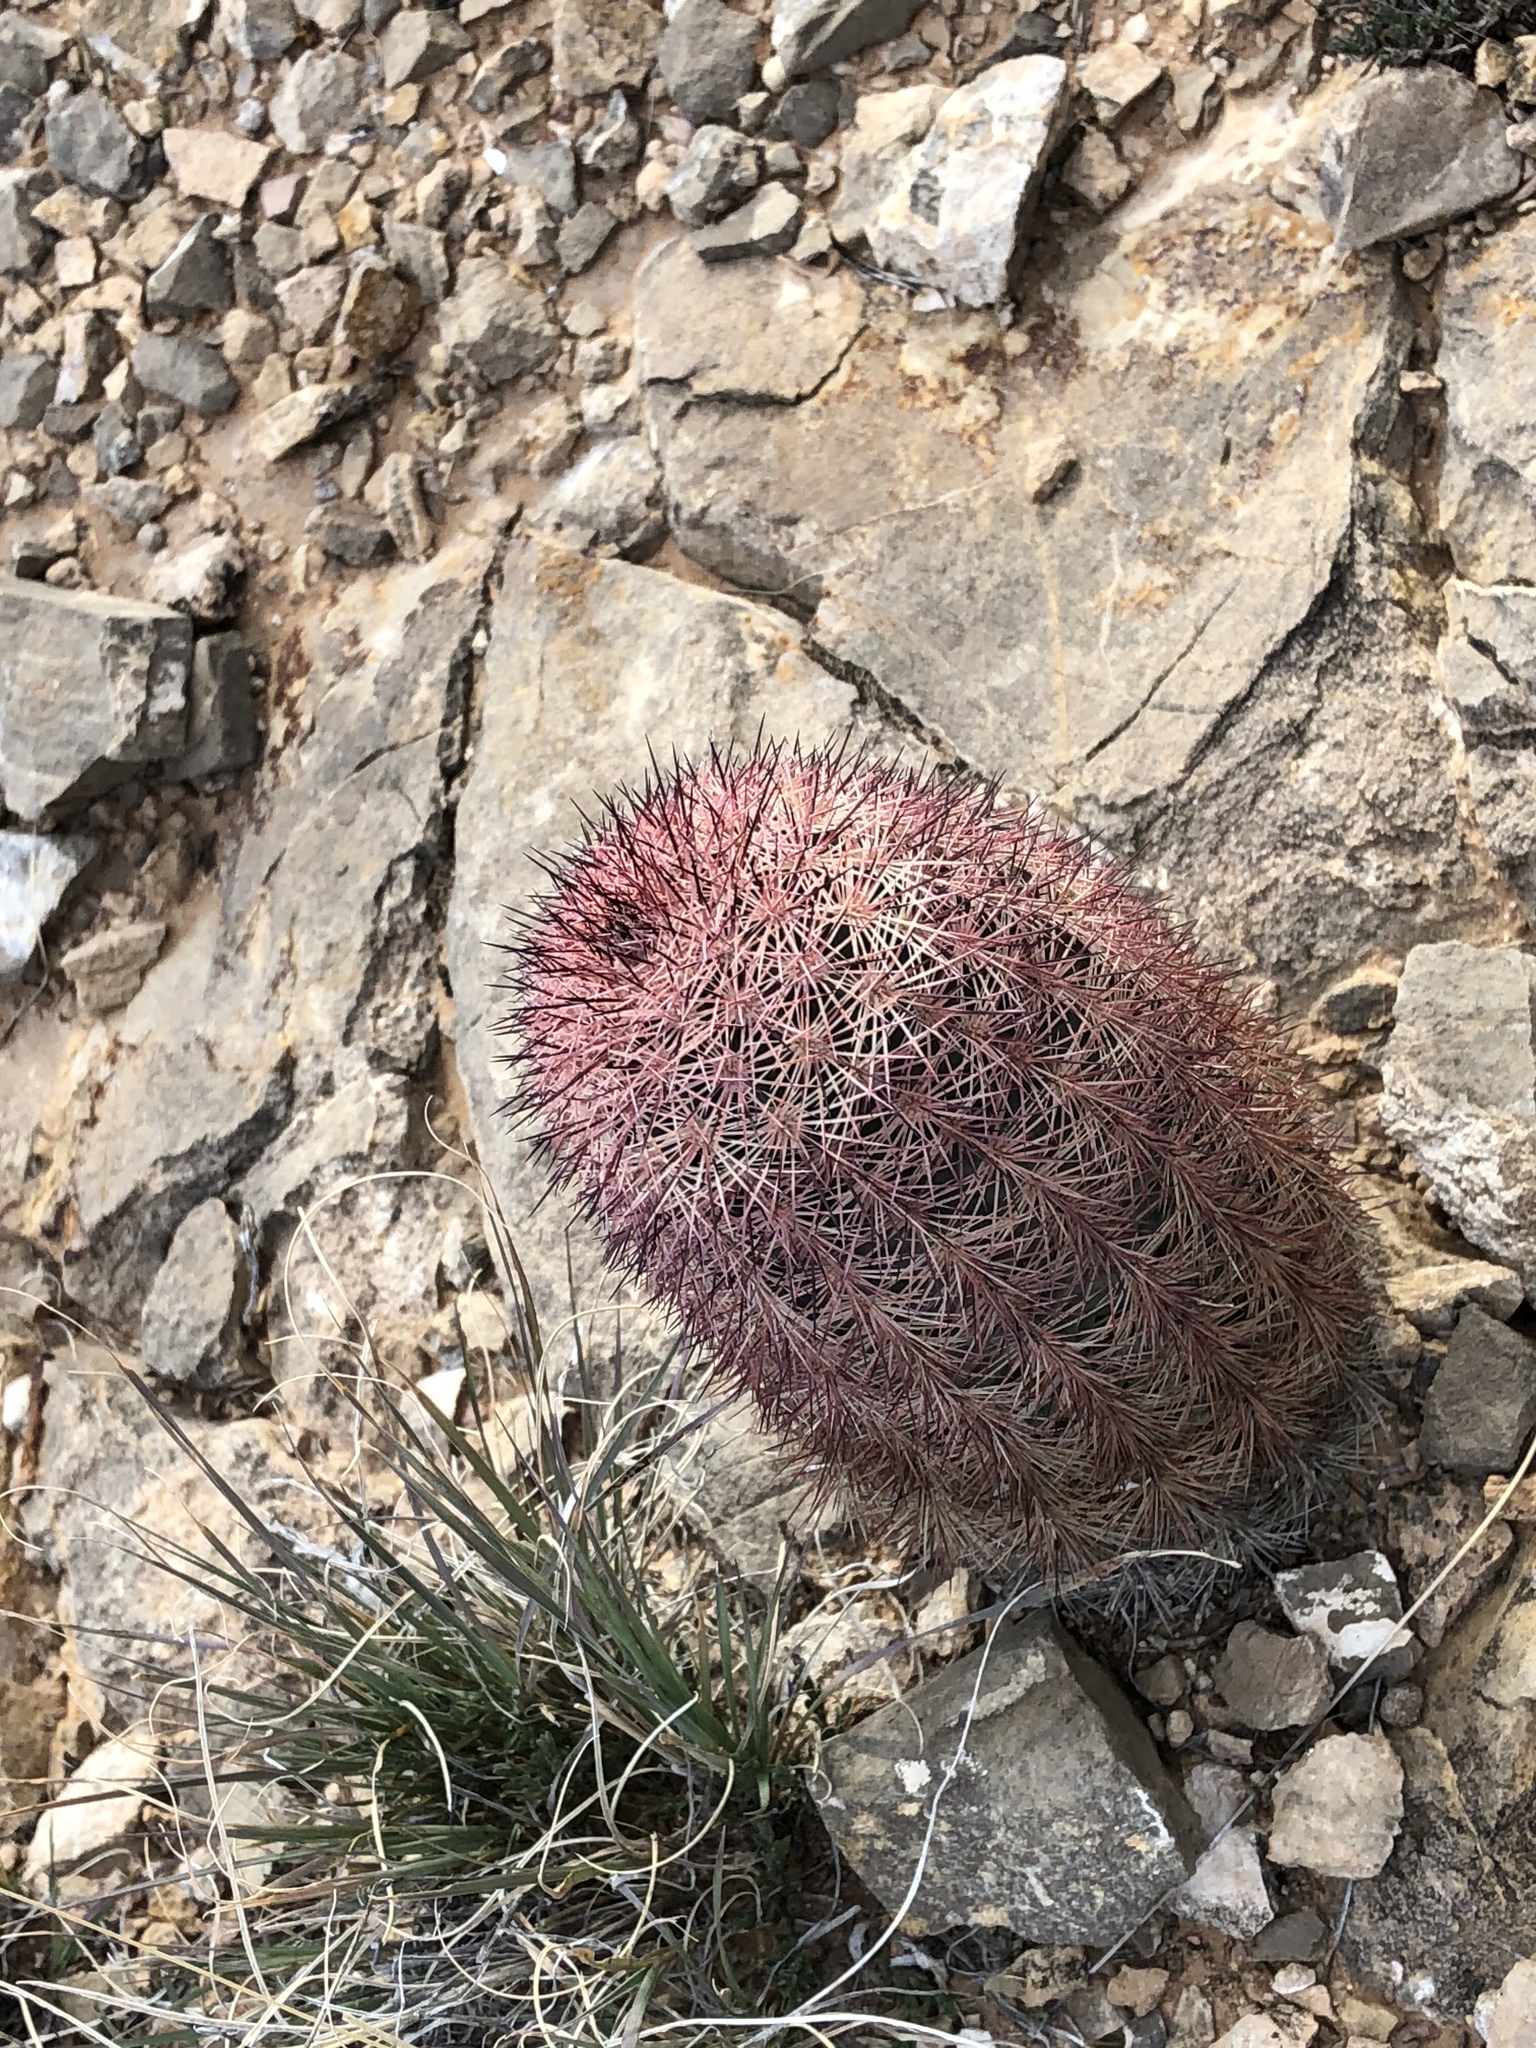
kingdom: Plantae
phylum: Tracheophyta
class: Magnoliopsida
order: Caryophyllales
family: Cactaceae
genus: Echinocereus
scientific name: Echinocereus dasyacanthus
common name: Spiny hedgehog cactus
